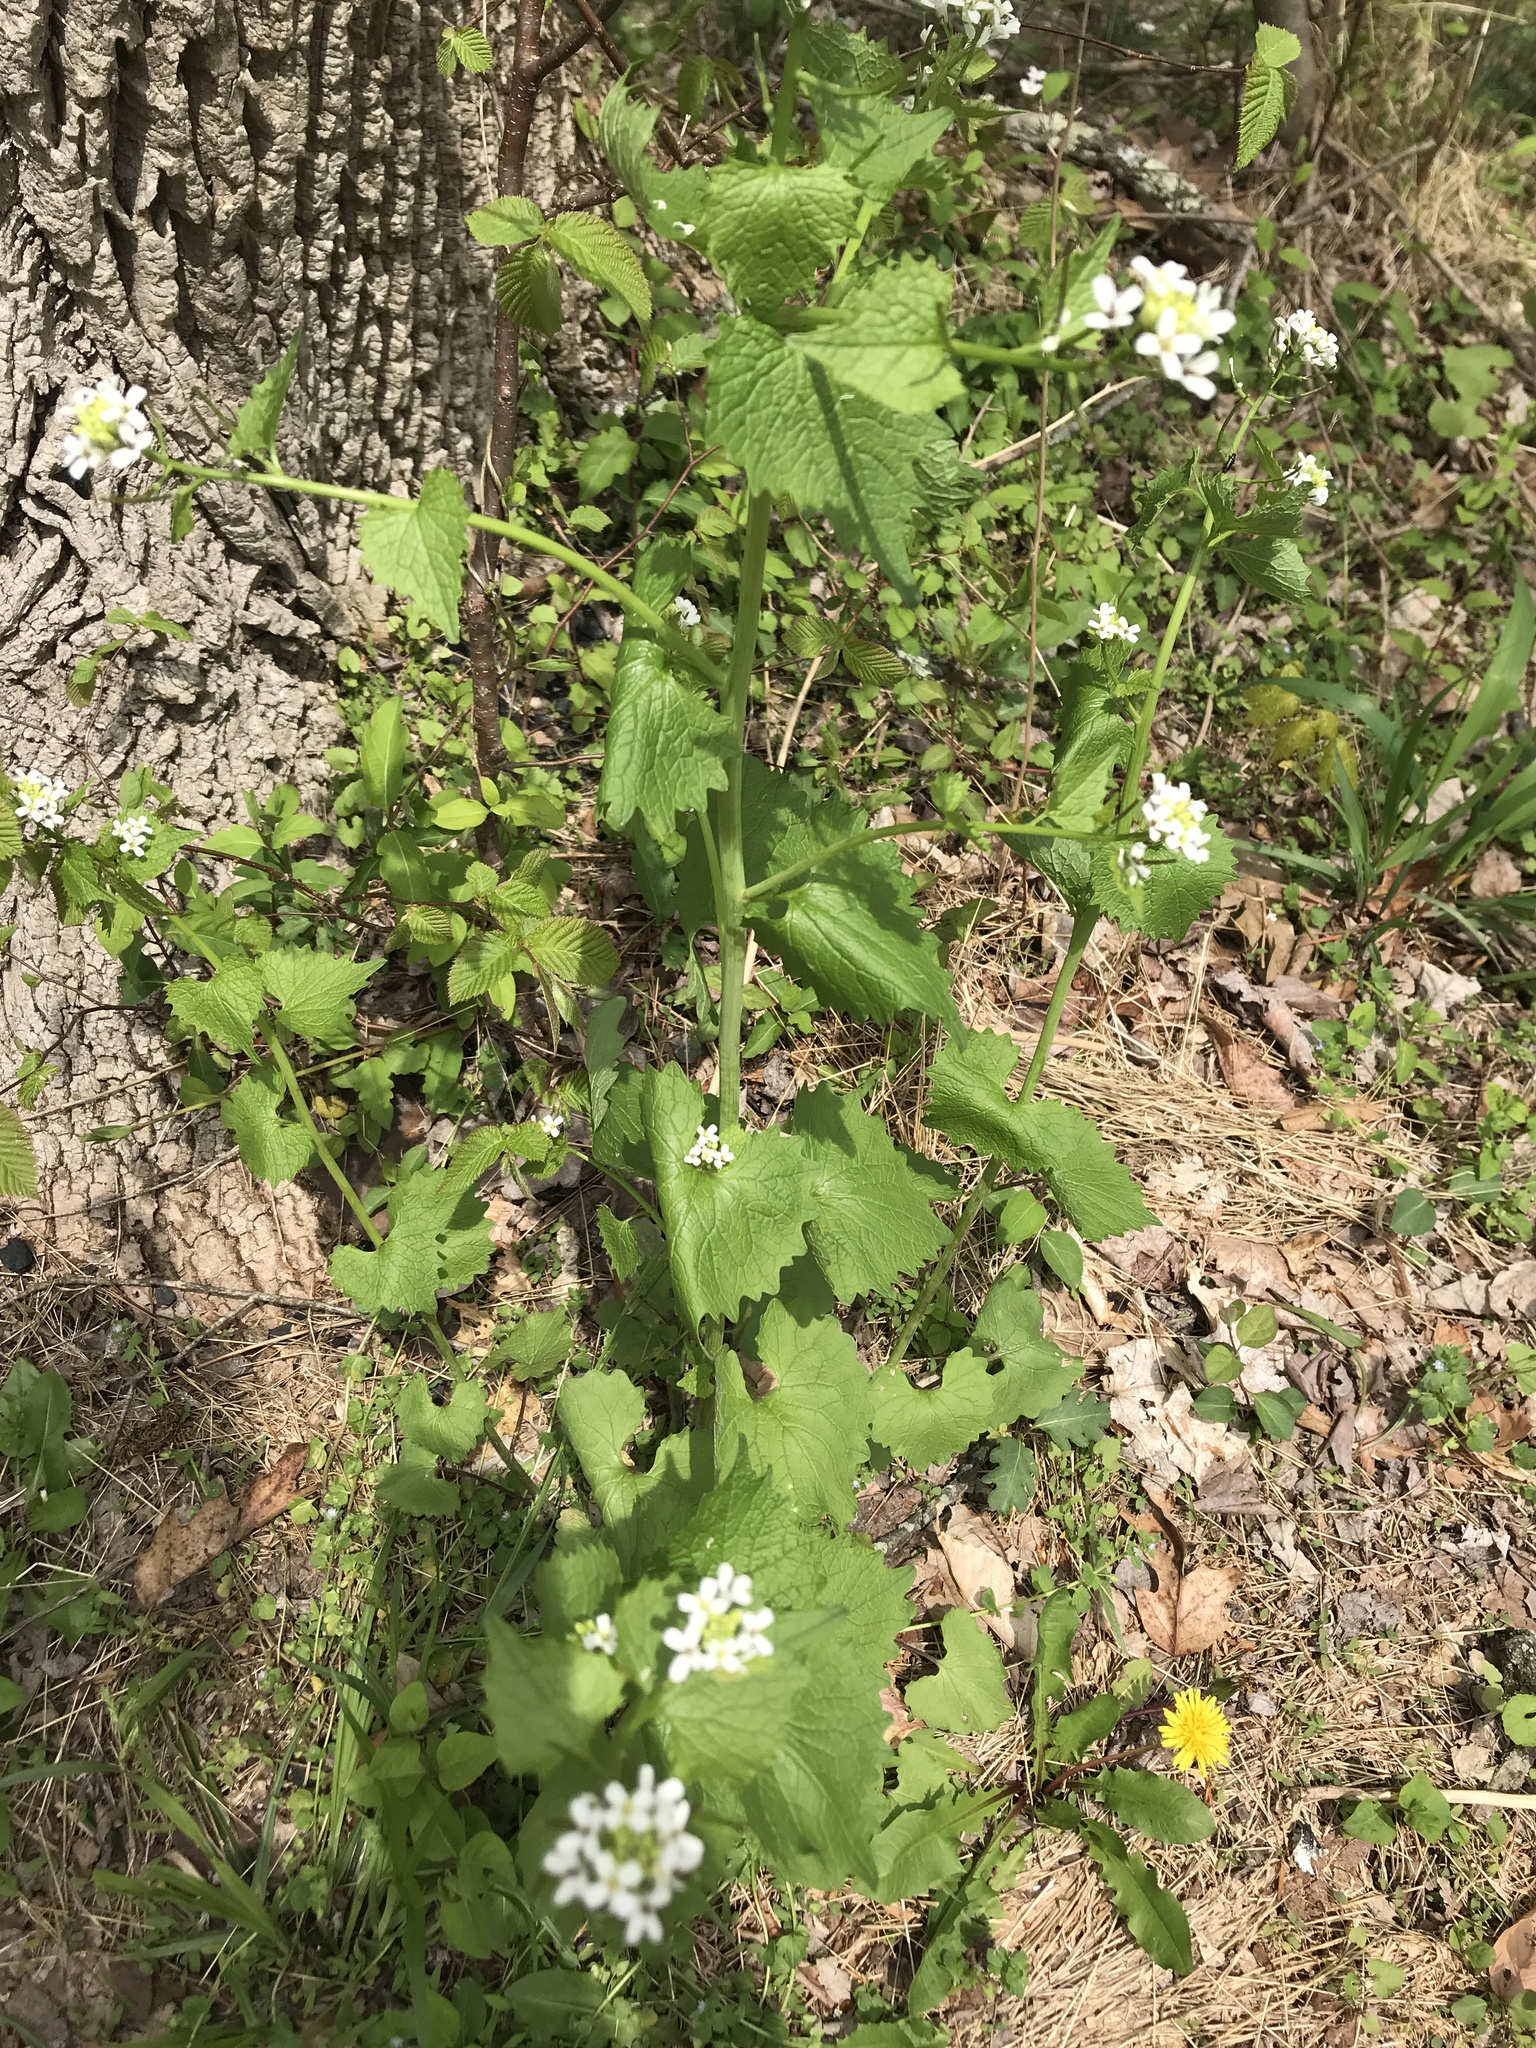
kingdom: Plantae
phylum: Tracheophyta
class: Magnoliopsida
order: Brassicales
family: Brassicaceae
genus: Alliaria
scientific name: Alliaria petiolata
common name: Garlic mustard
